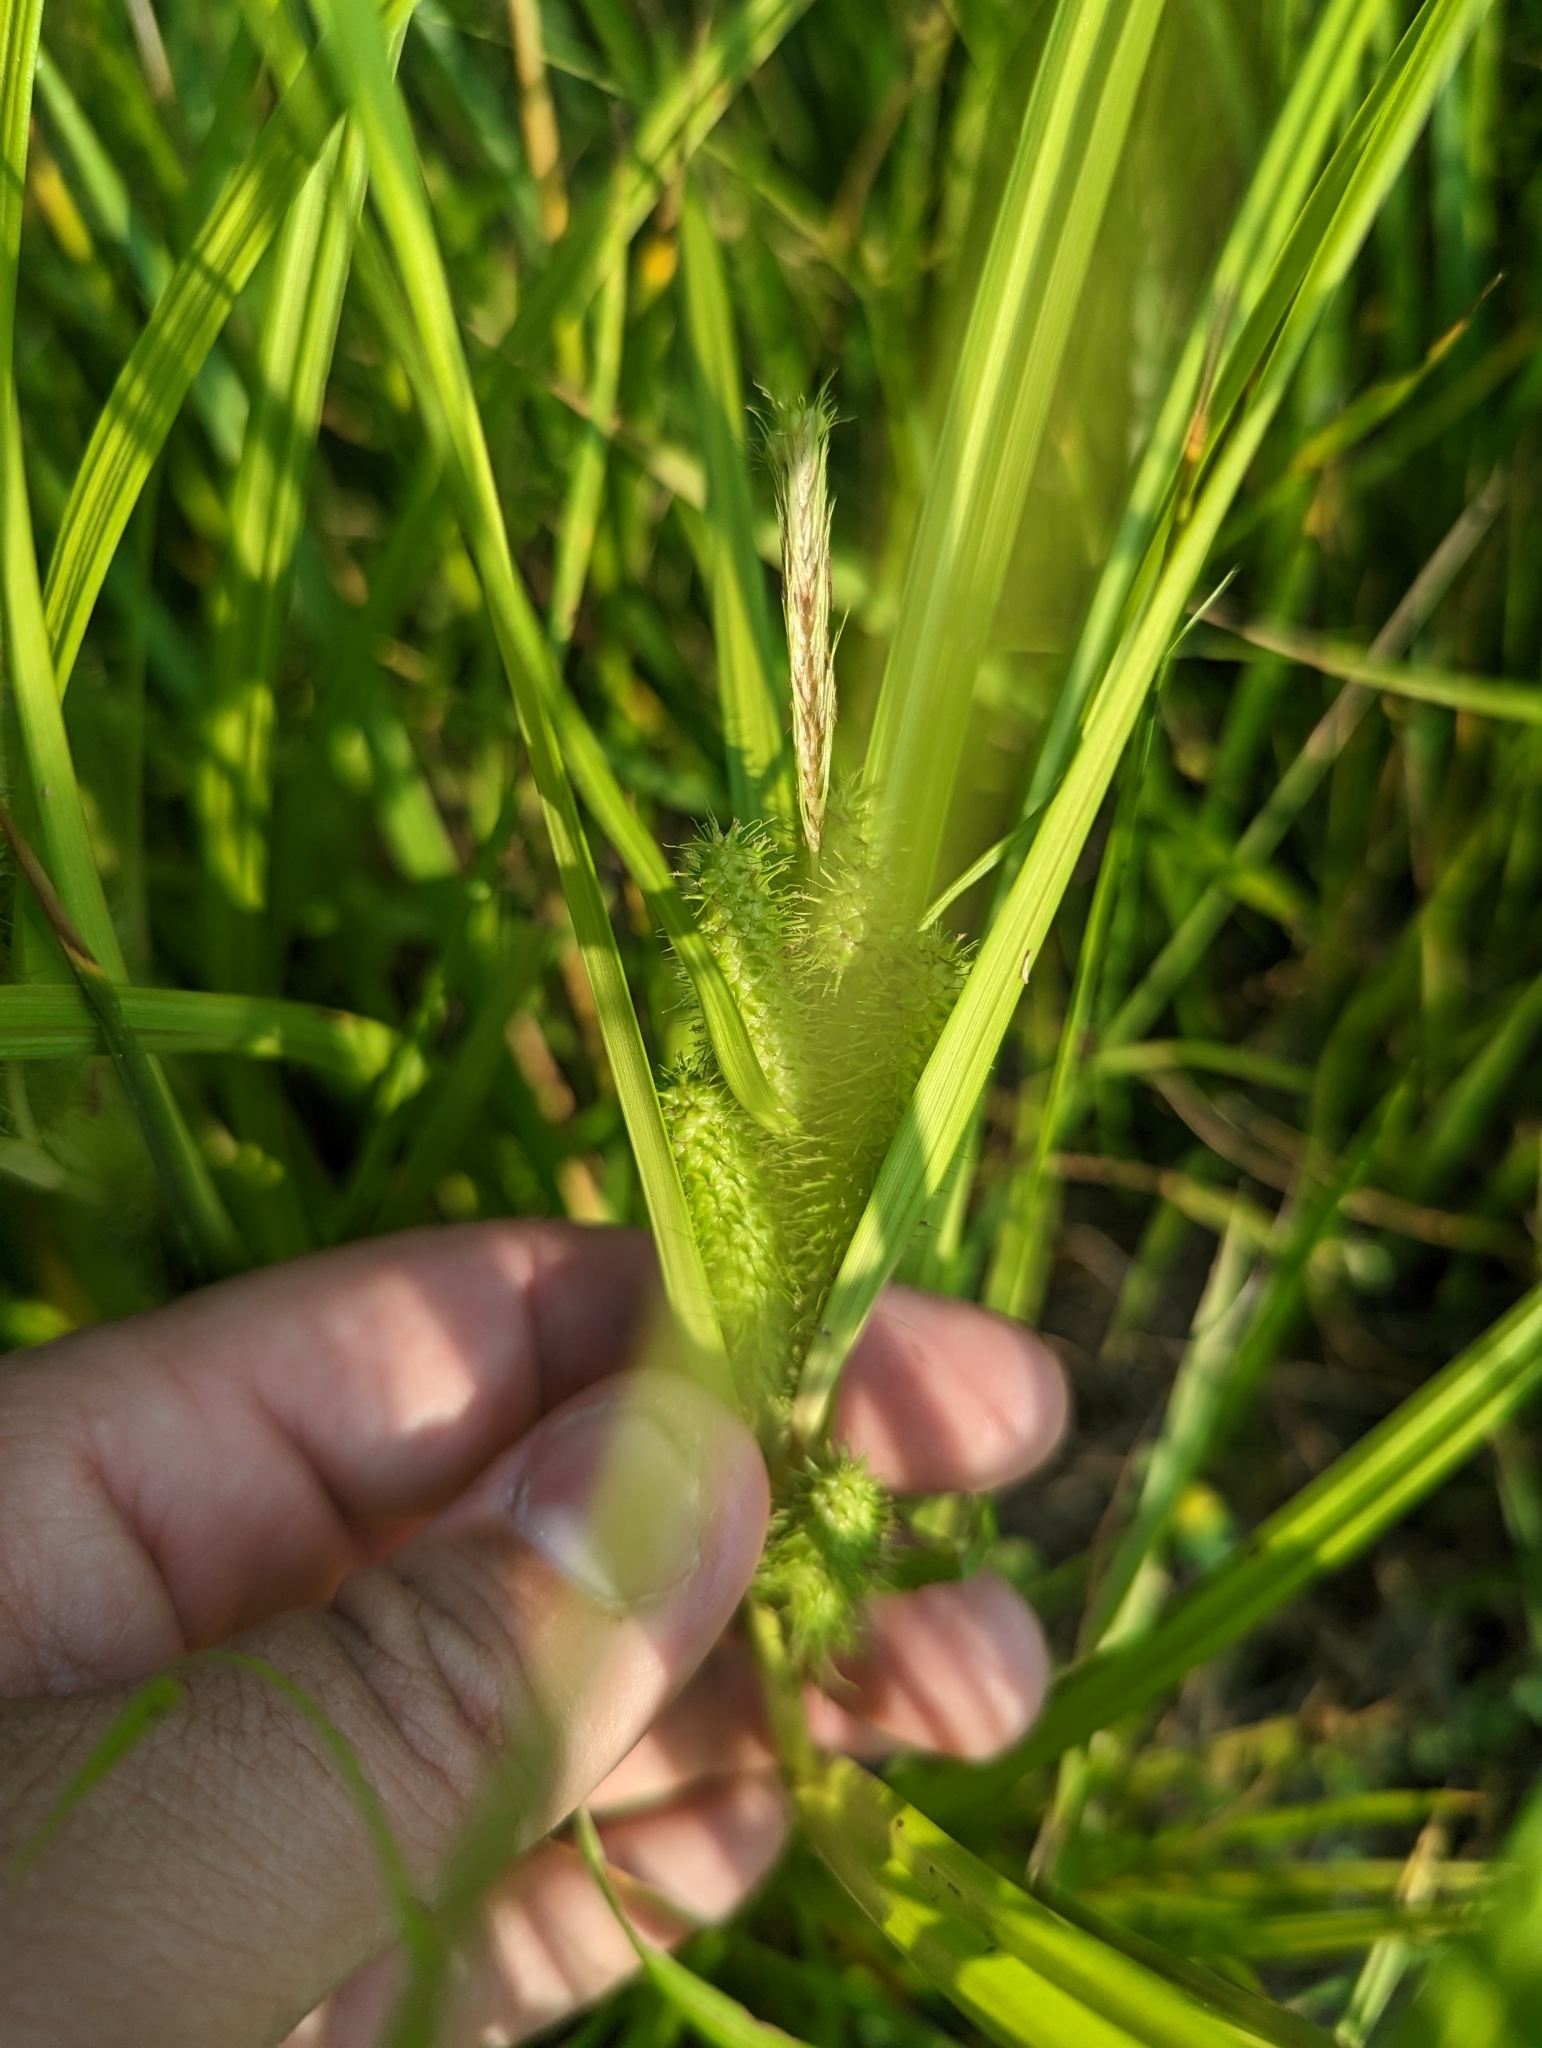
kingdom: Plantae
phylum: Tracheophyta
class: Liliopsida
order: Poales
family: Cyperaceae
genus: Carex
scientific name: Carex frankii
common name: Frank's sedge
